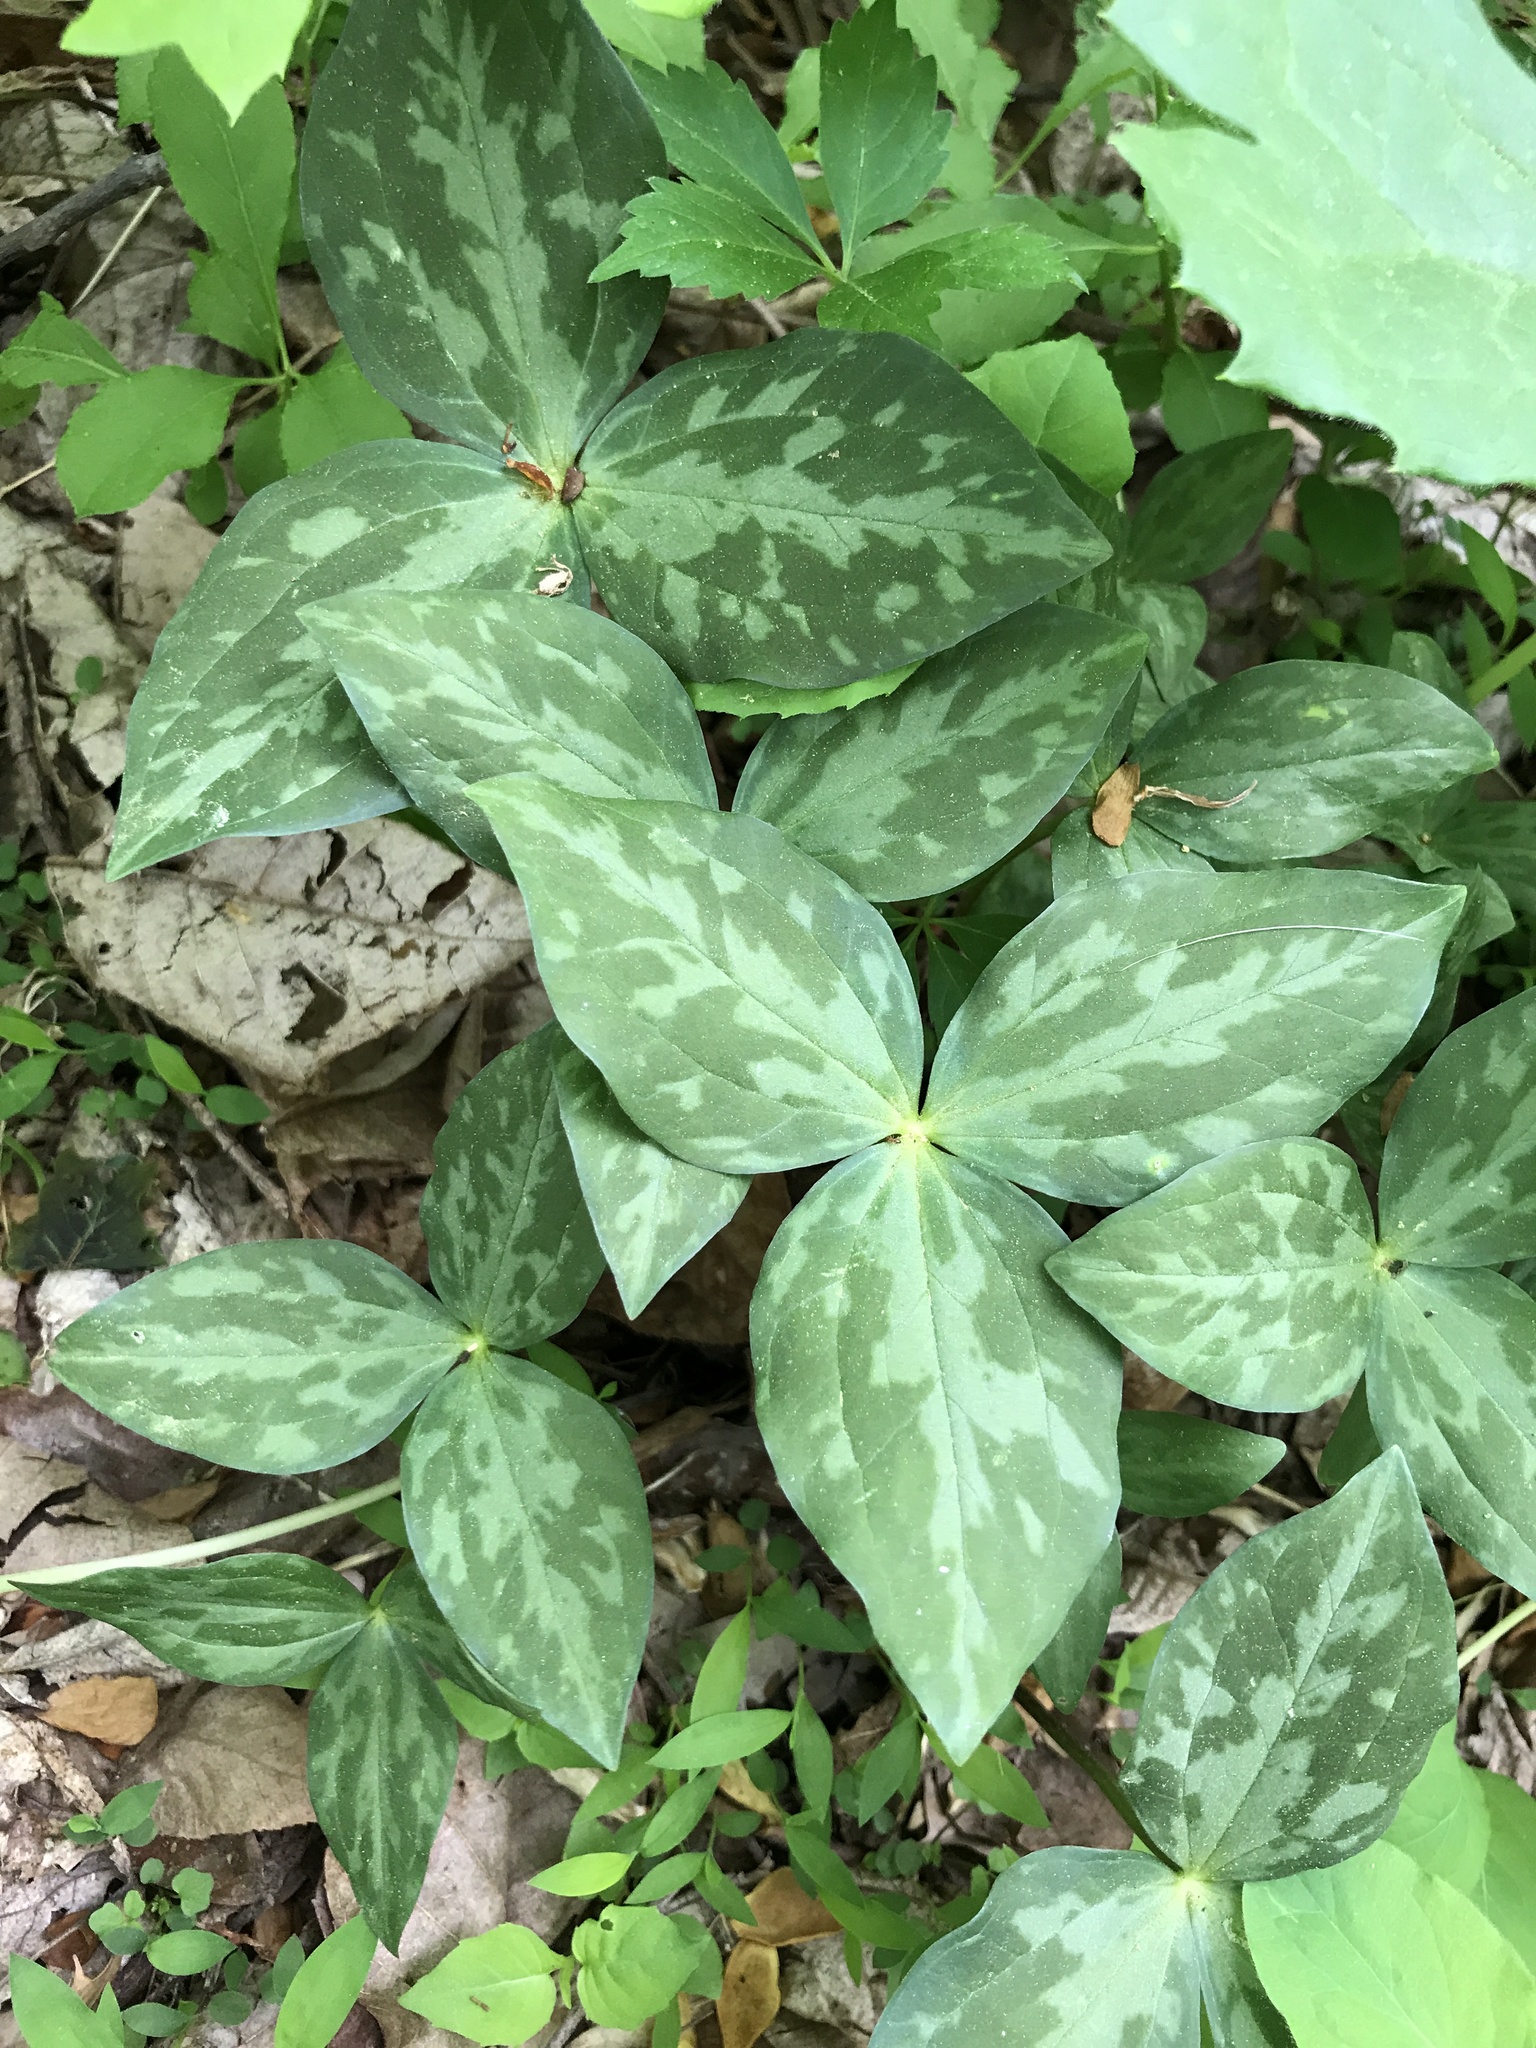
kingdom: Plantae
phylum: Tracheophyta
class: Liliopsida
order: Liliales
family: Melanthiaceae
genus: Trillium
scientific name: Trillium cuneatum
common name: Cuneate trillium
